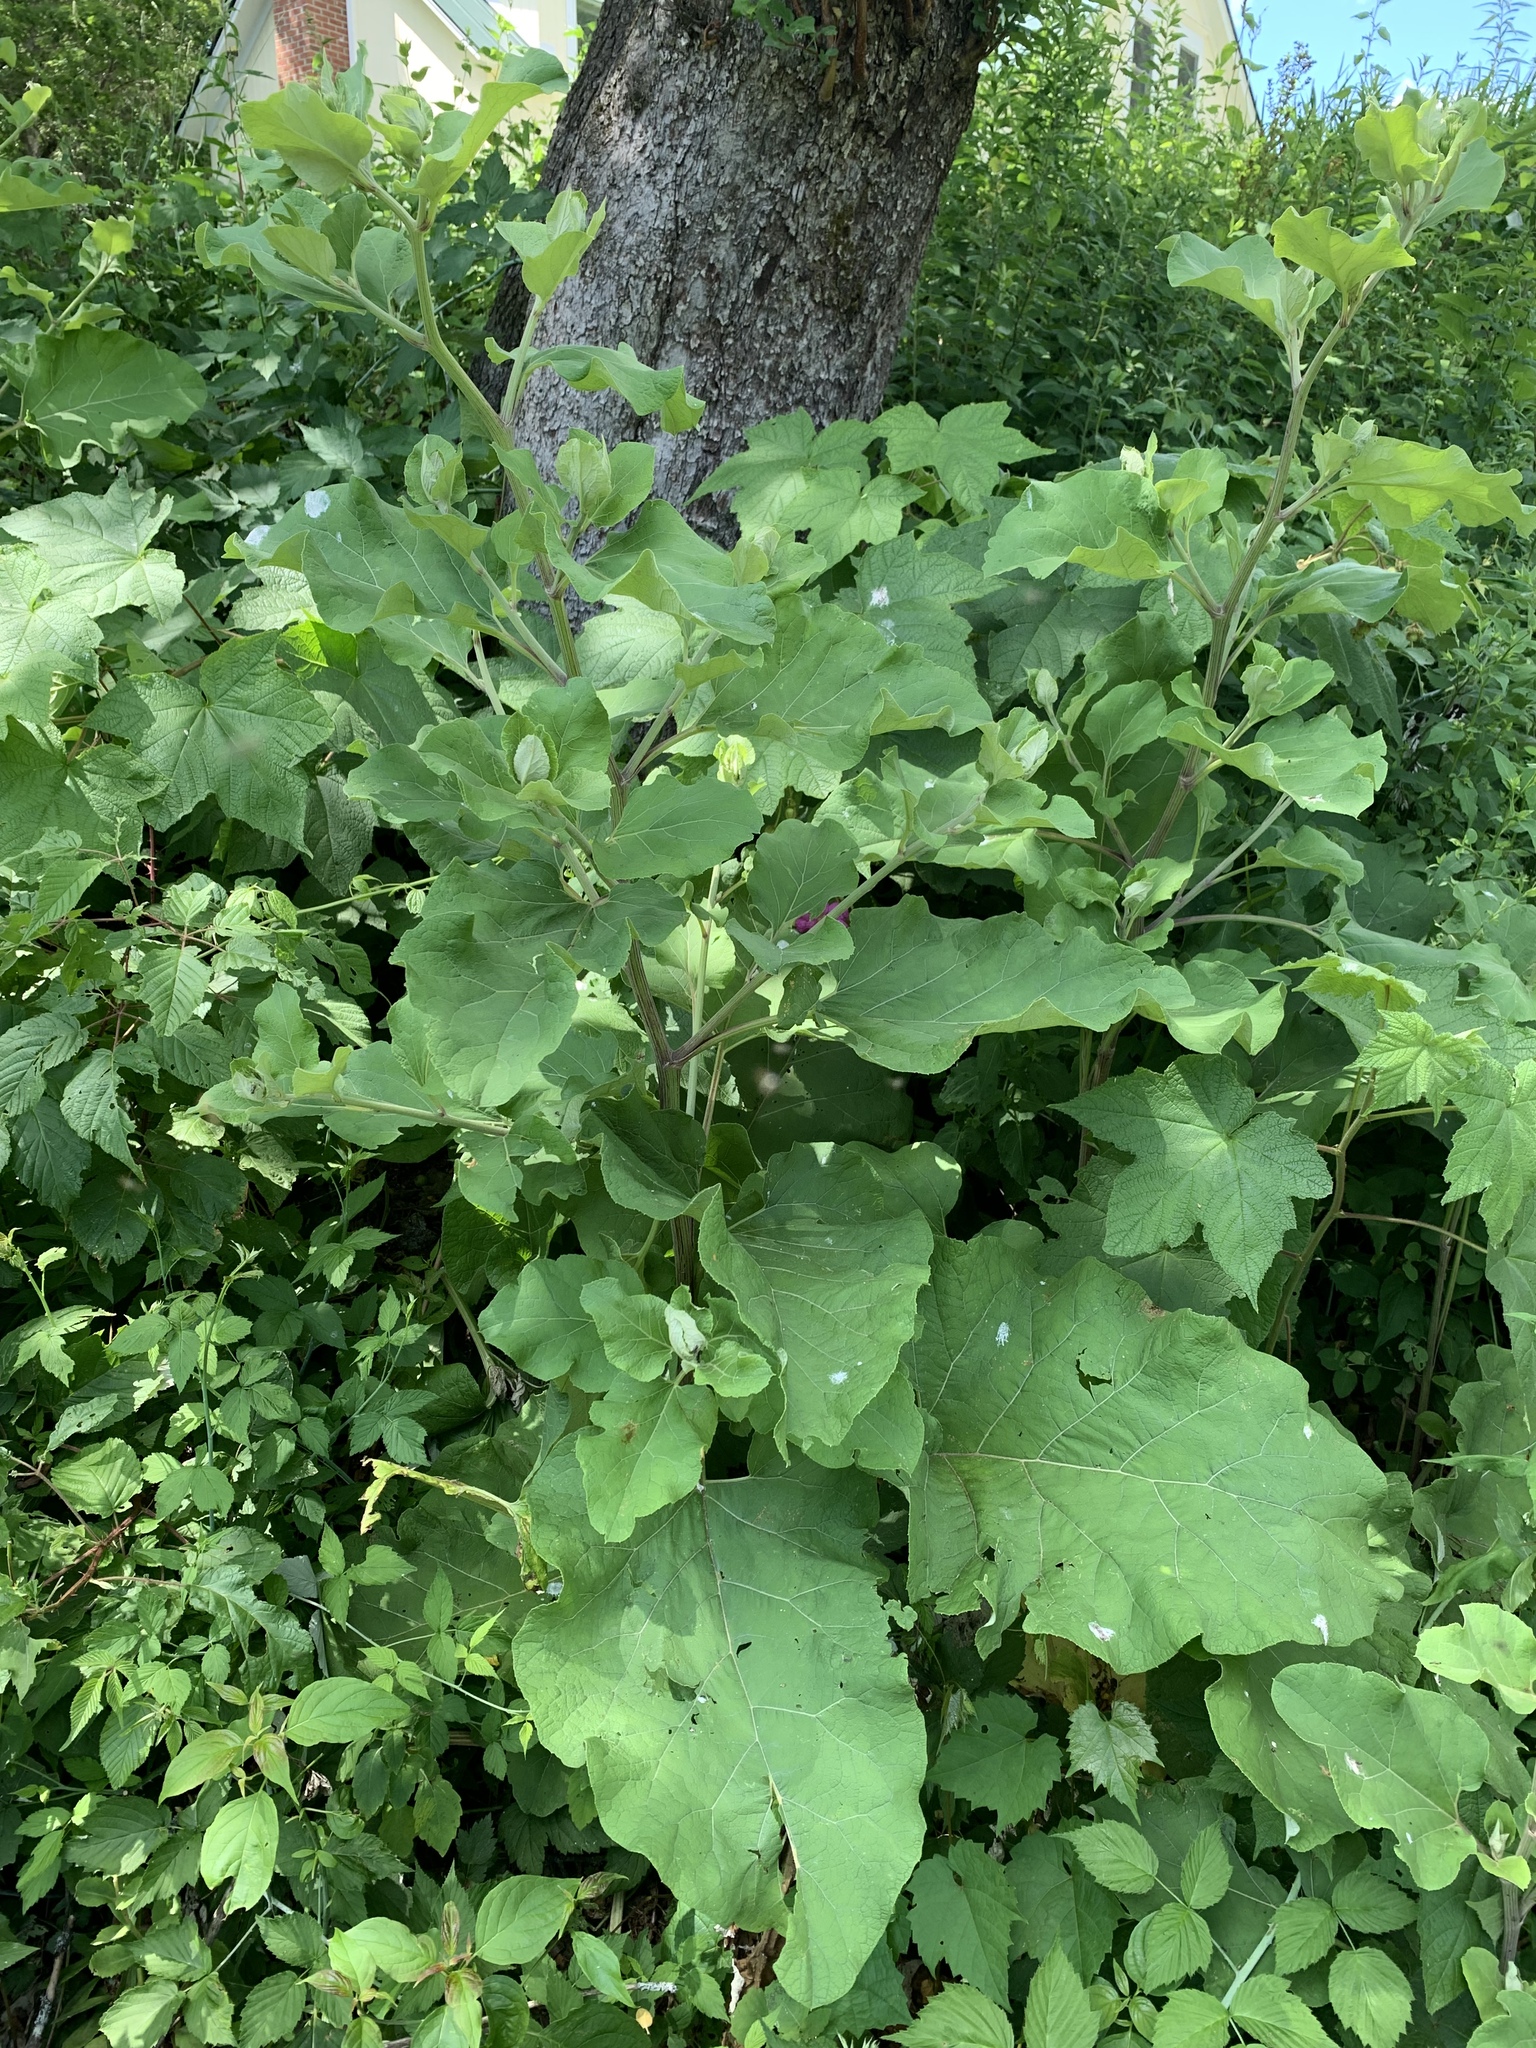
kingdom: Plantae
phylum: Tracheophyta
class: Magnoliopsida
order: Asterales
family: Asteraceae
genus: Arctium
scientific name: Arctium
